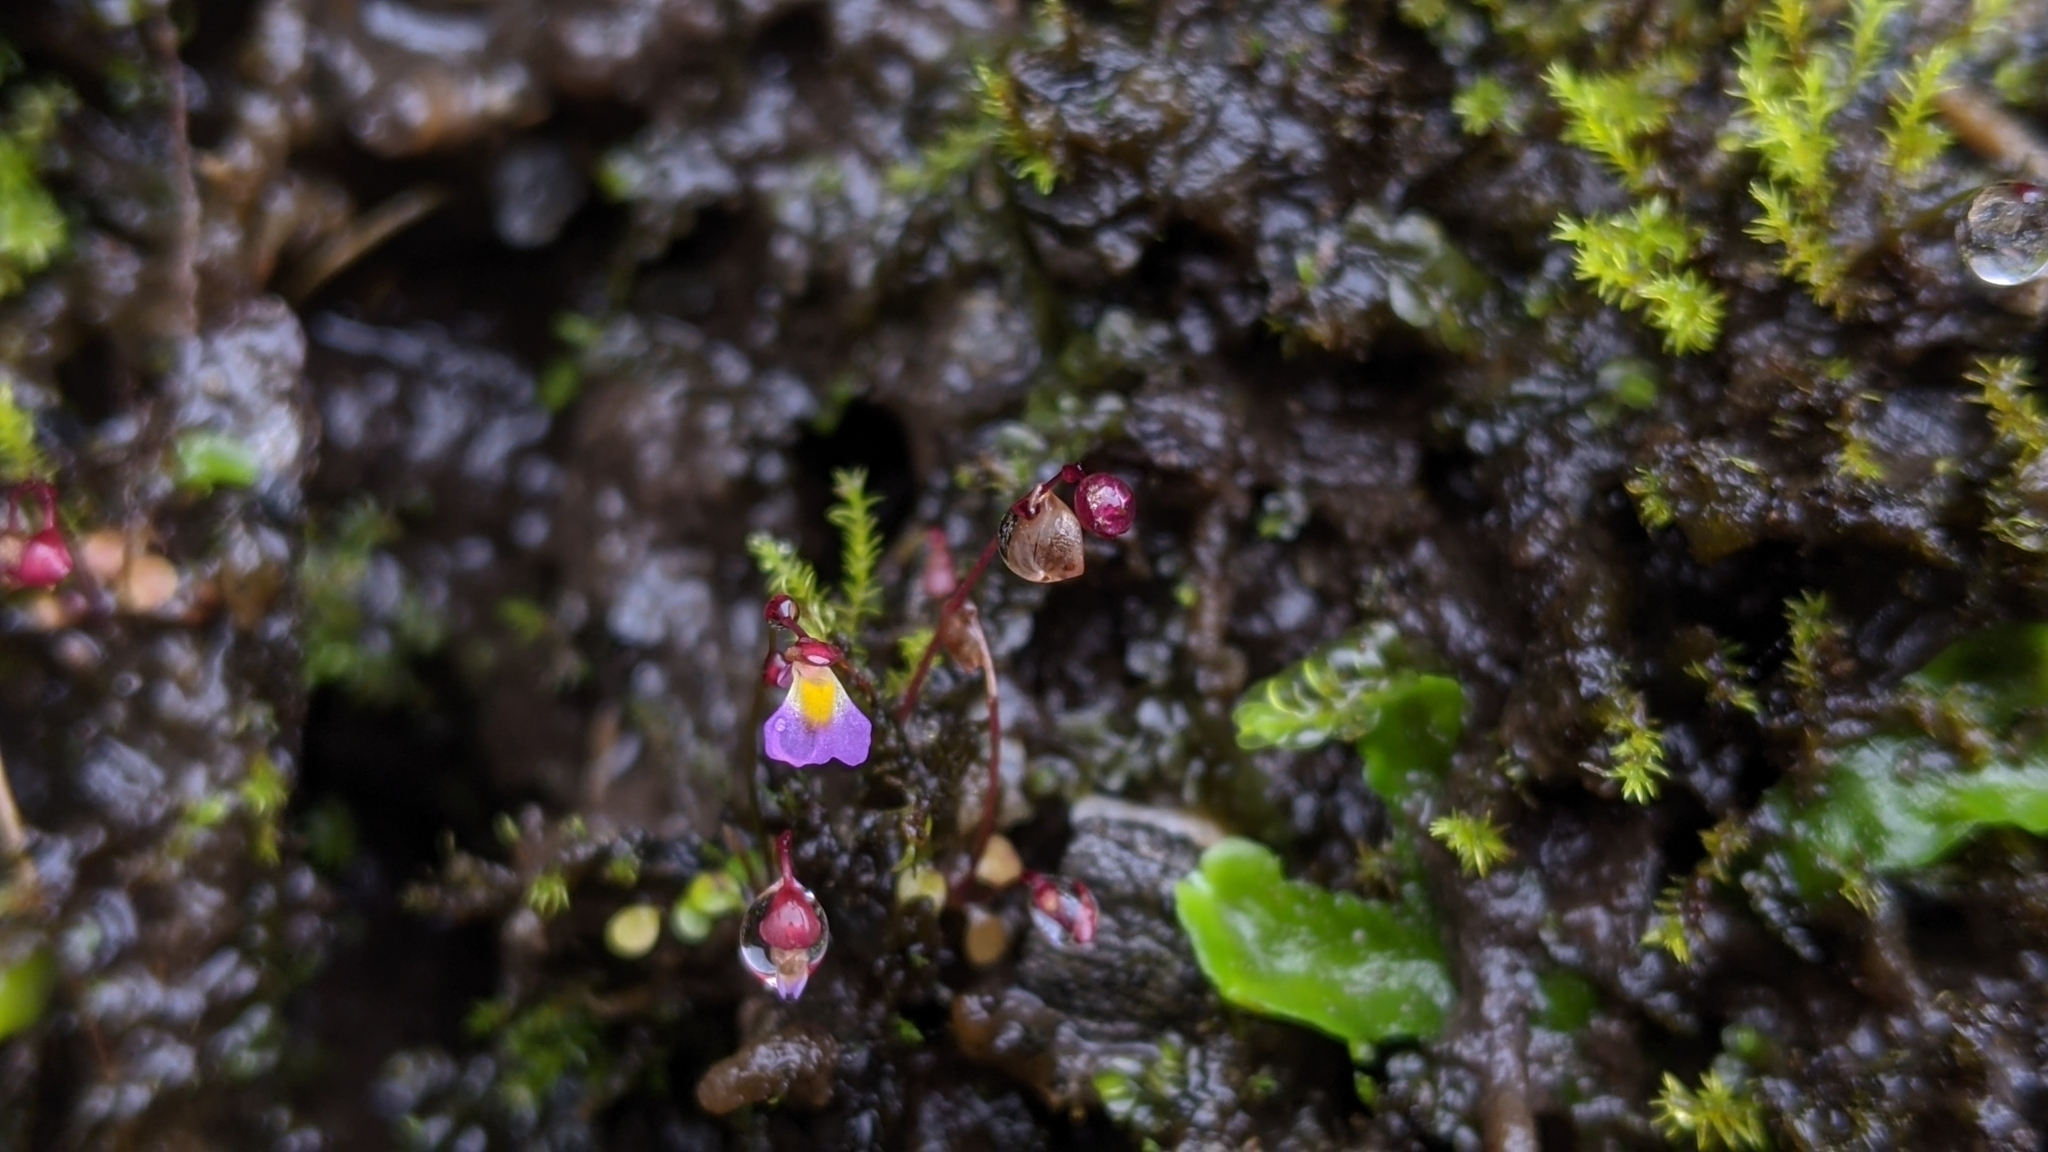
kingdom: Plantae
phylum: Tracheophyta
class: Magnoliopsida
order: Lamiales
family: Lentibulariaceae
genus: Utricularia
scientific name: Utricularia striatula
